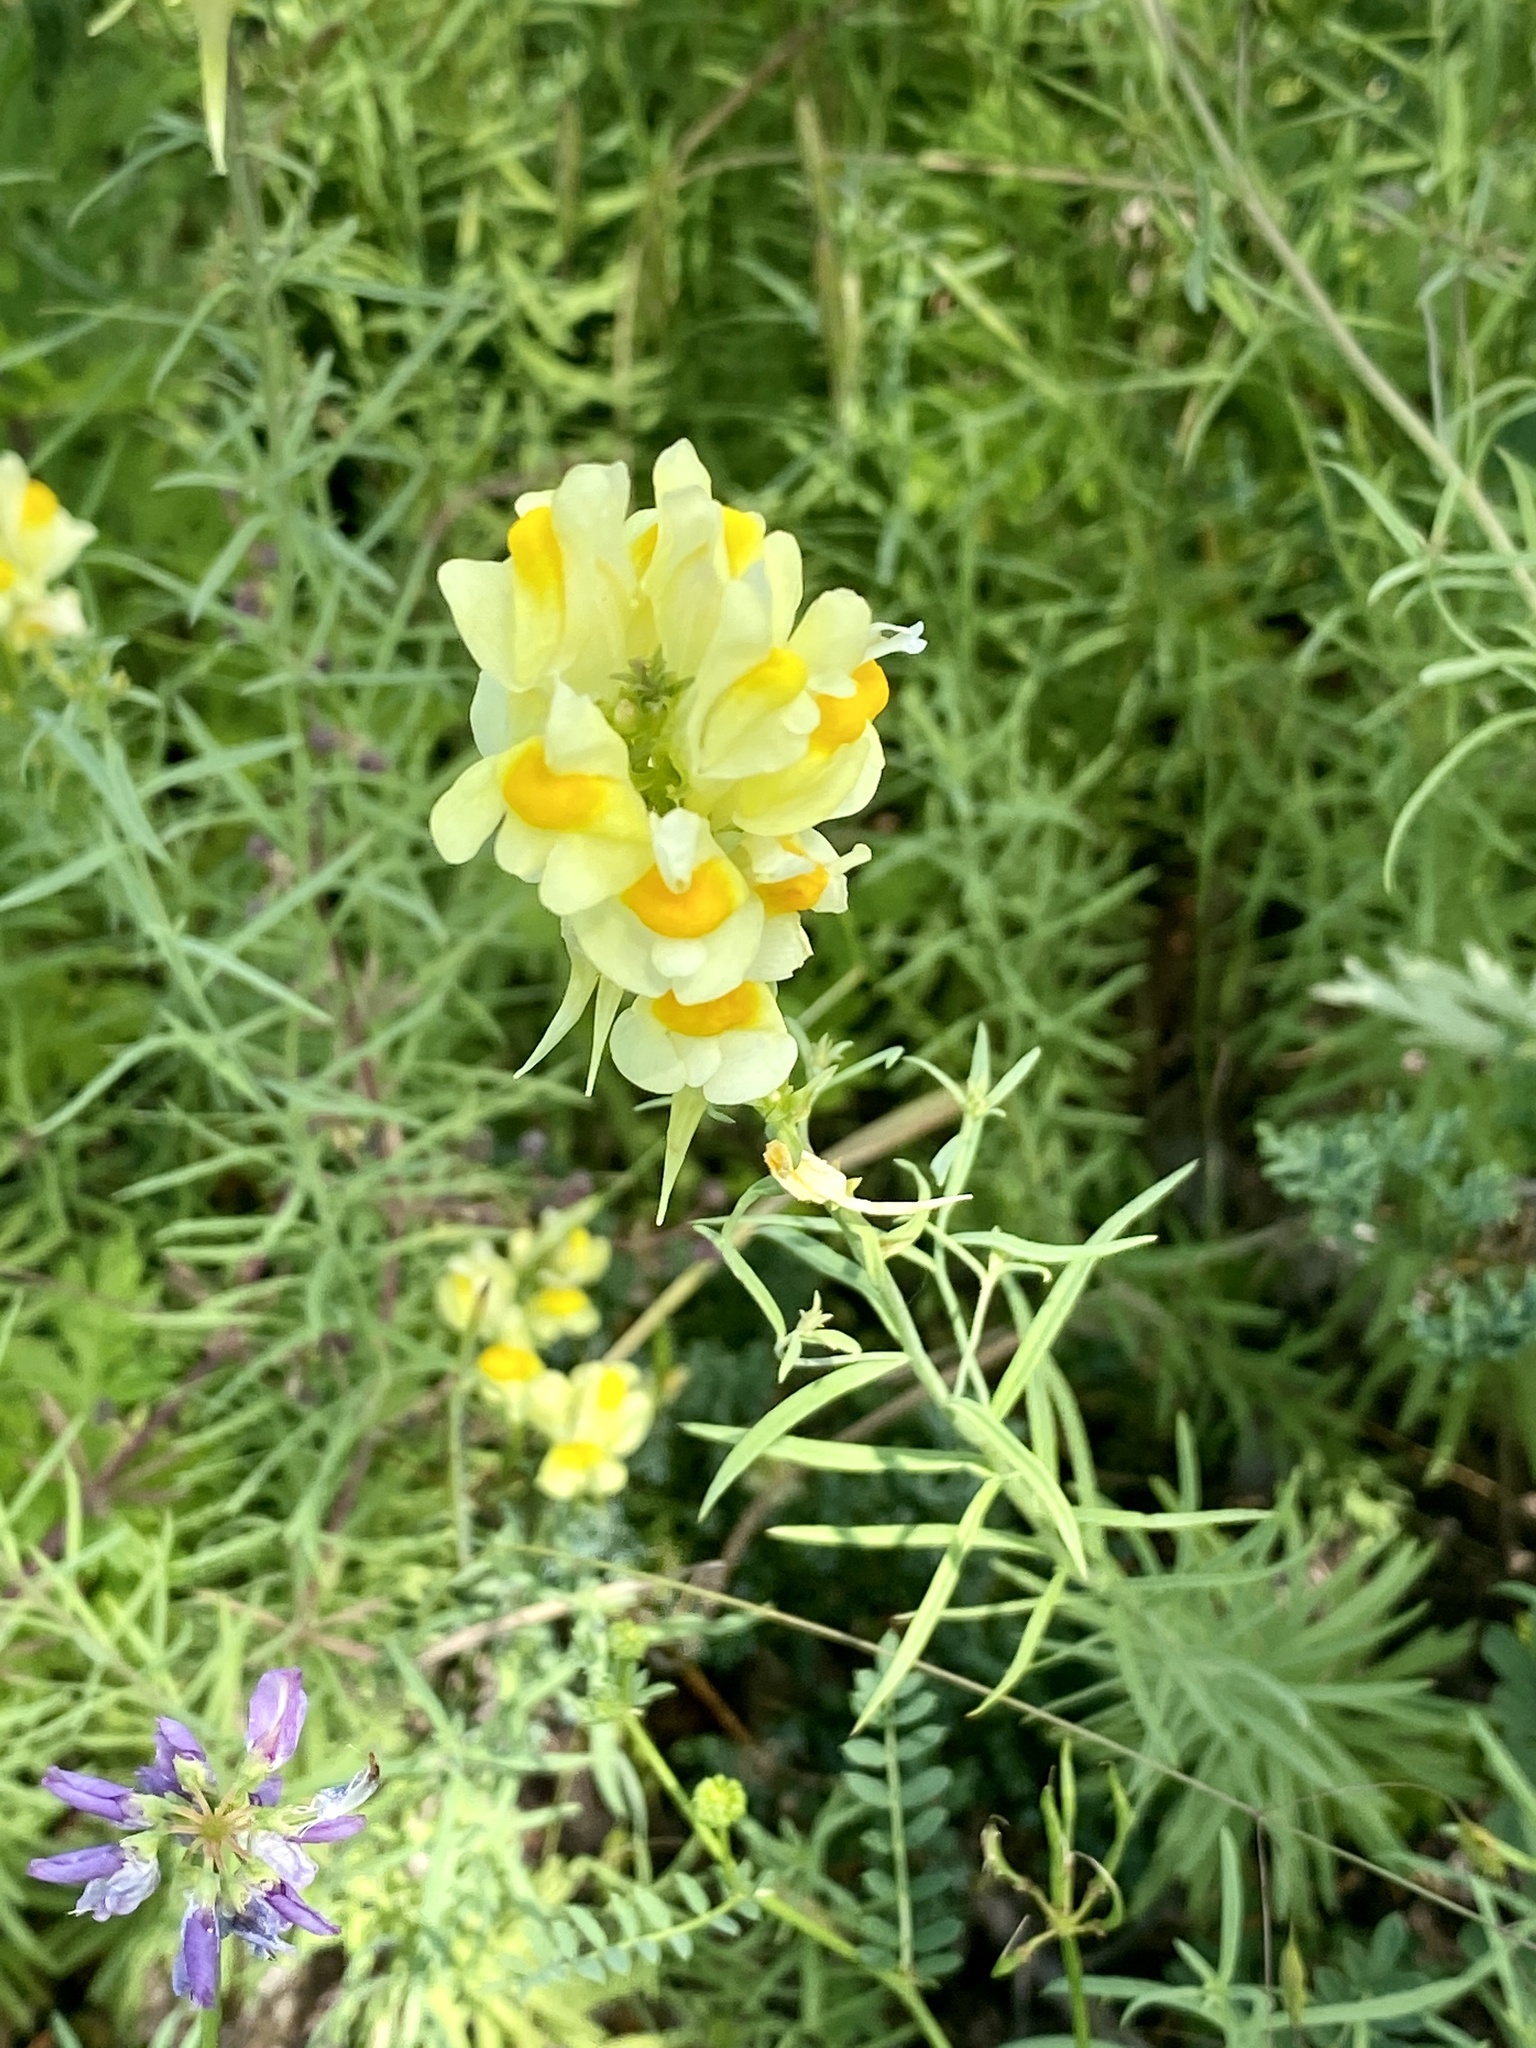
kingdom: Plantae
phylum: Tracheophyta
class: Magnoliopsida
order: Lamiales
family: Plantaginaceae
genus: Linaria
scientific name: Linaria vulgaris
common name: Butter and eggs
